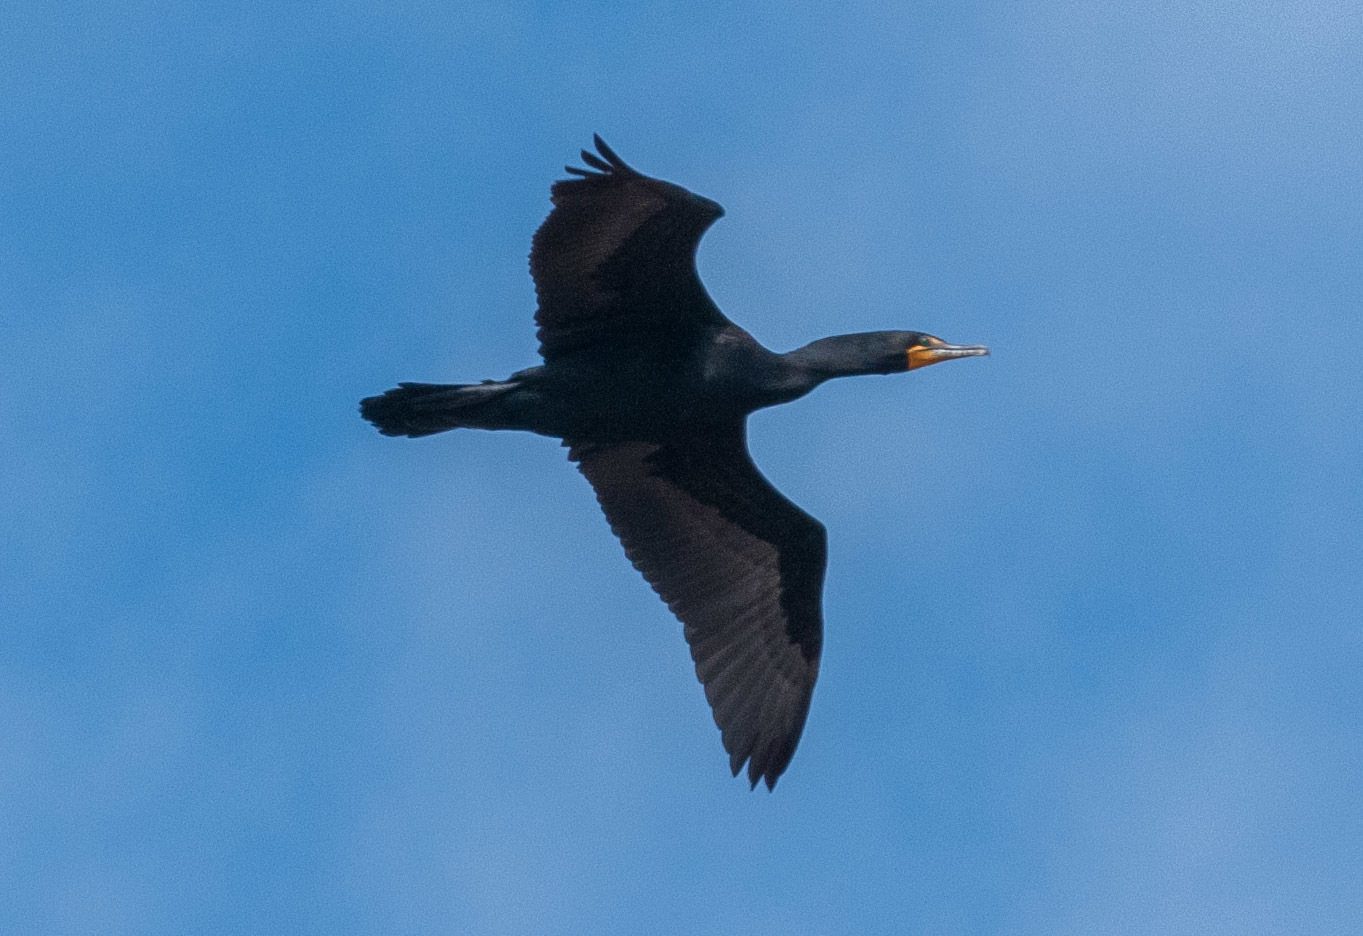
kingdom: Animalia
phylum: Chordata
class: Aves
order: Suliformes
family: Phalacrocoracidae
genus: Phalacrocorax
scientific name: Phalacrocorax auritus
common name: Double-crested cormorant
